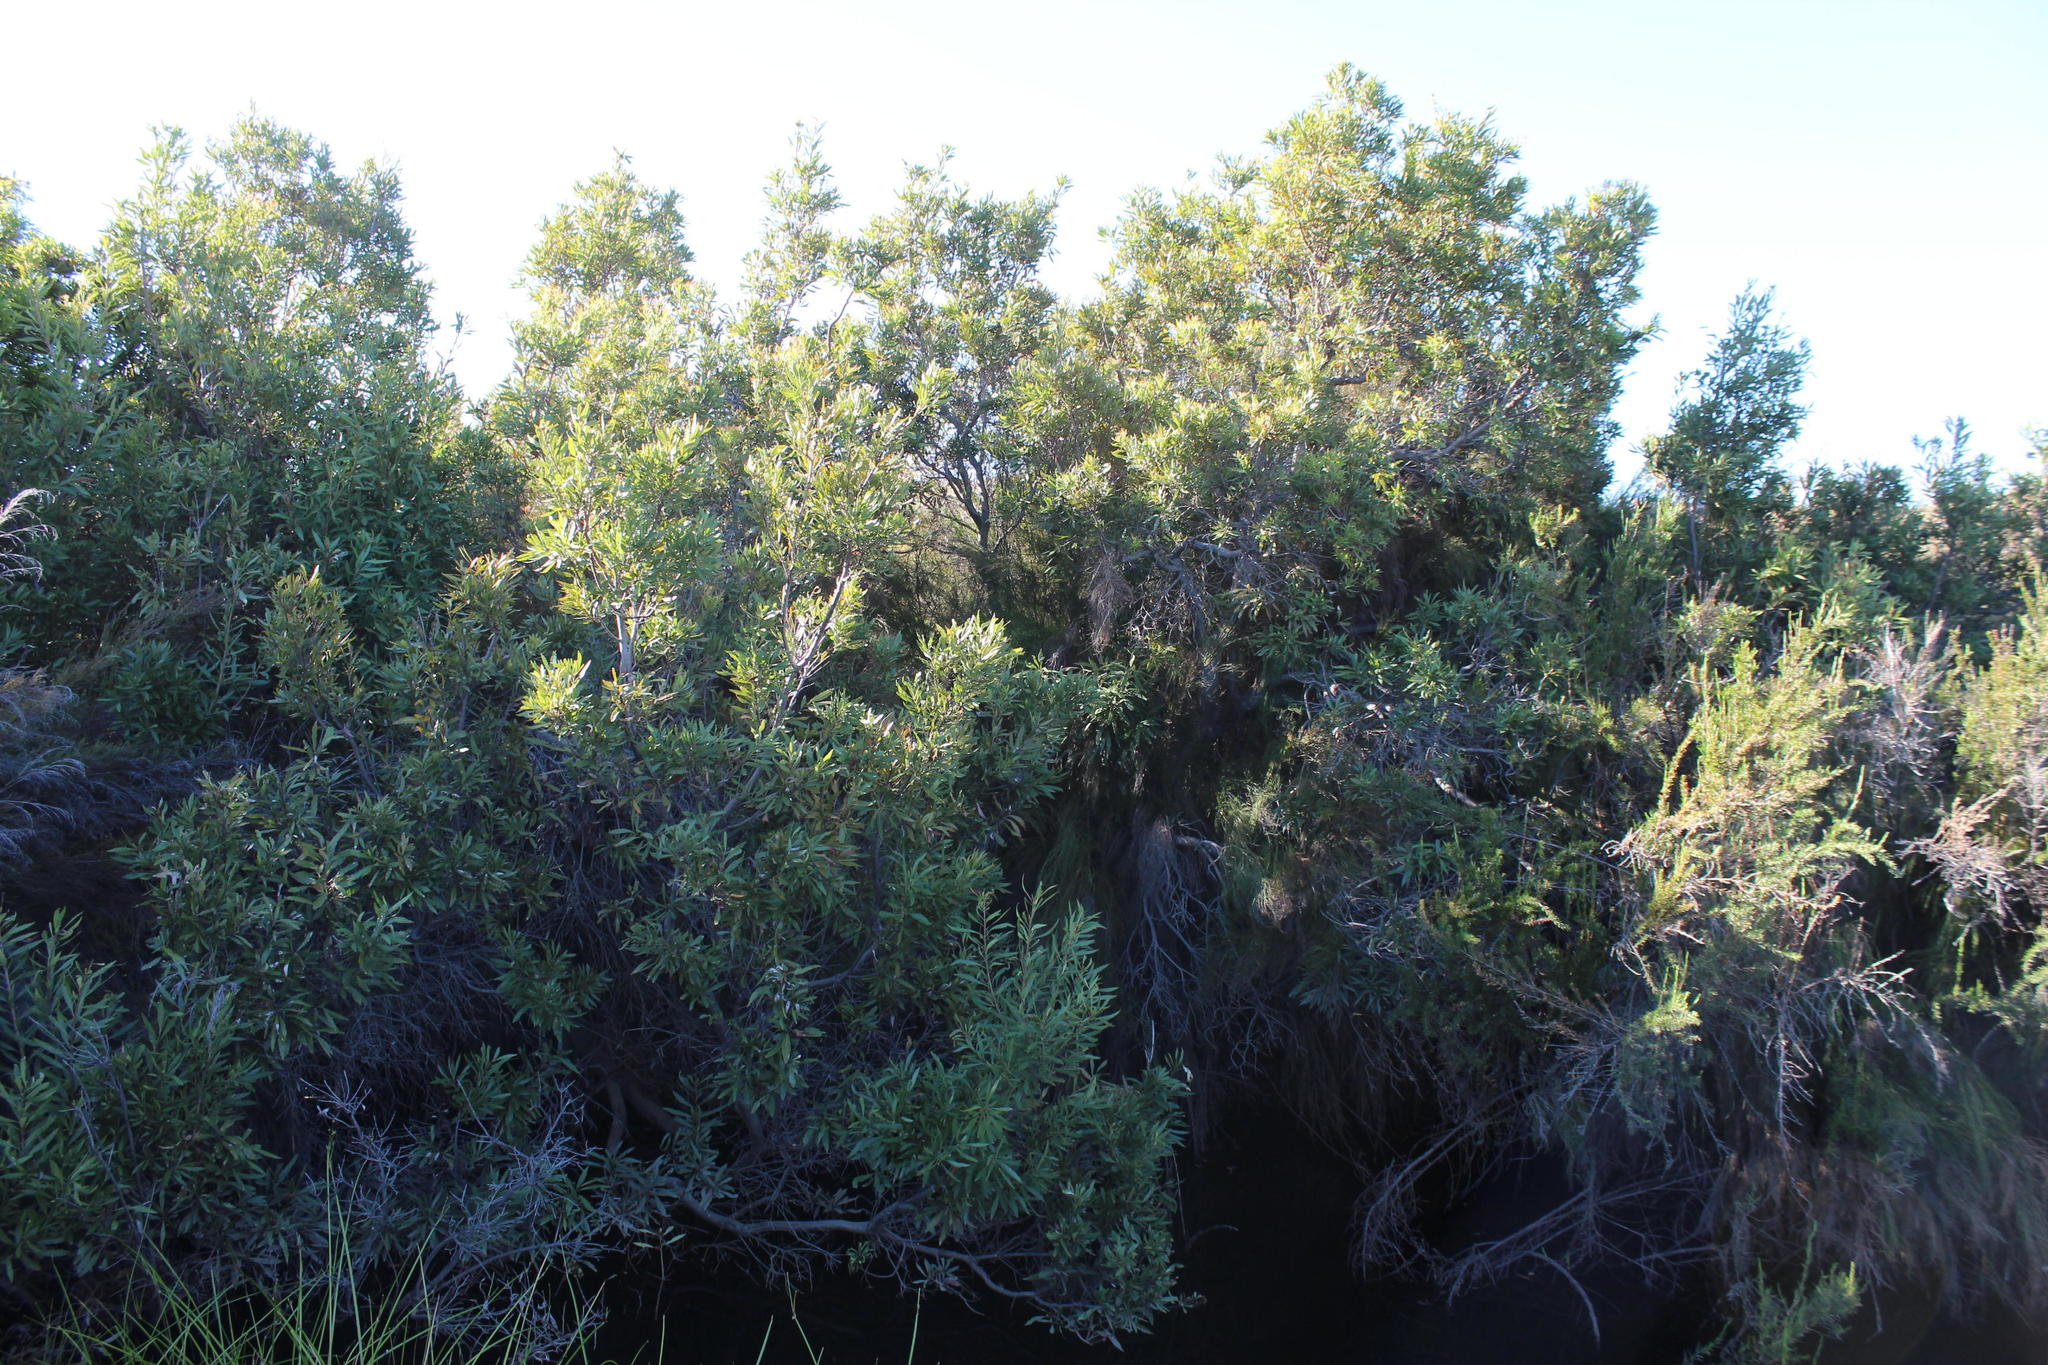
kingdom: Plantae
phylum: Tracheophyta
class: Magnoliopsida
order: Asterales
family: Asteraceae
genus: Brachylaena
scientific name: Brachylaena neriifolia
